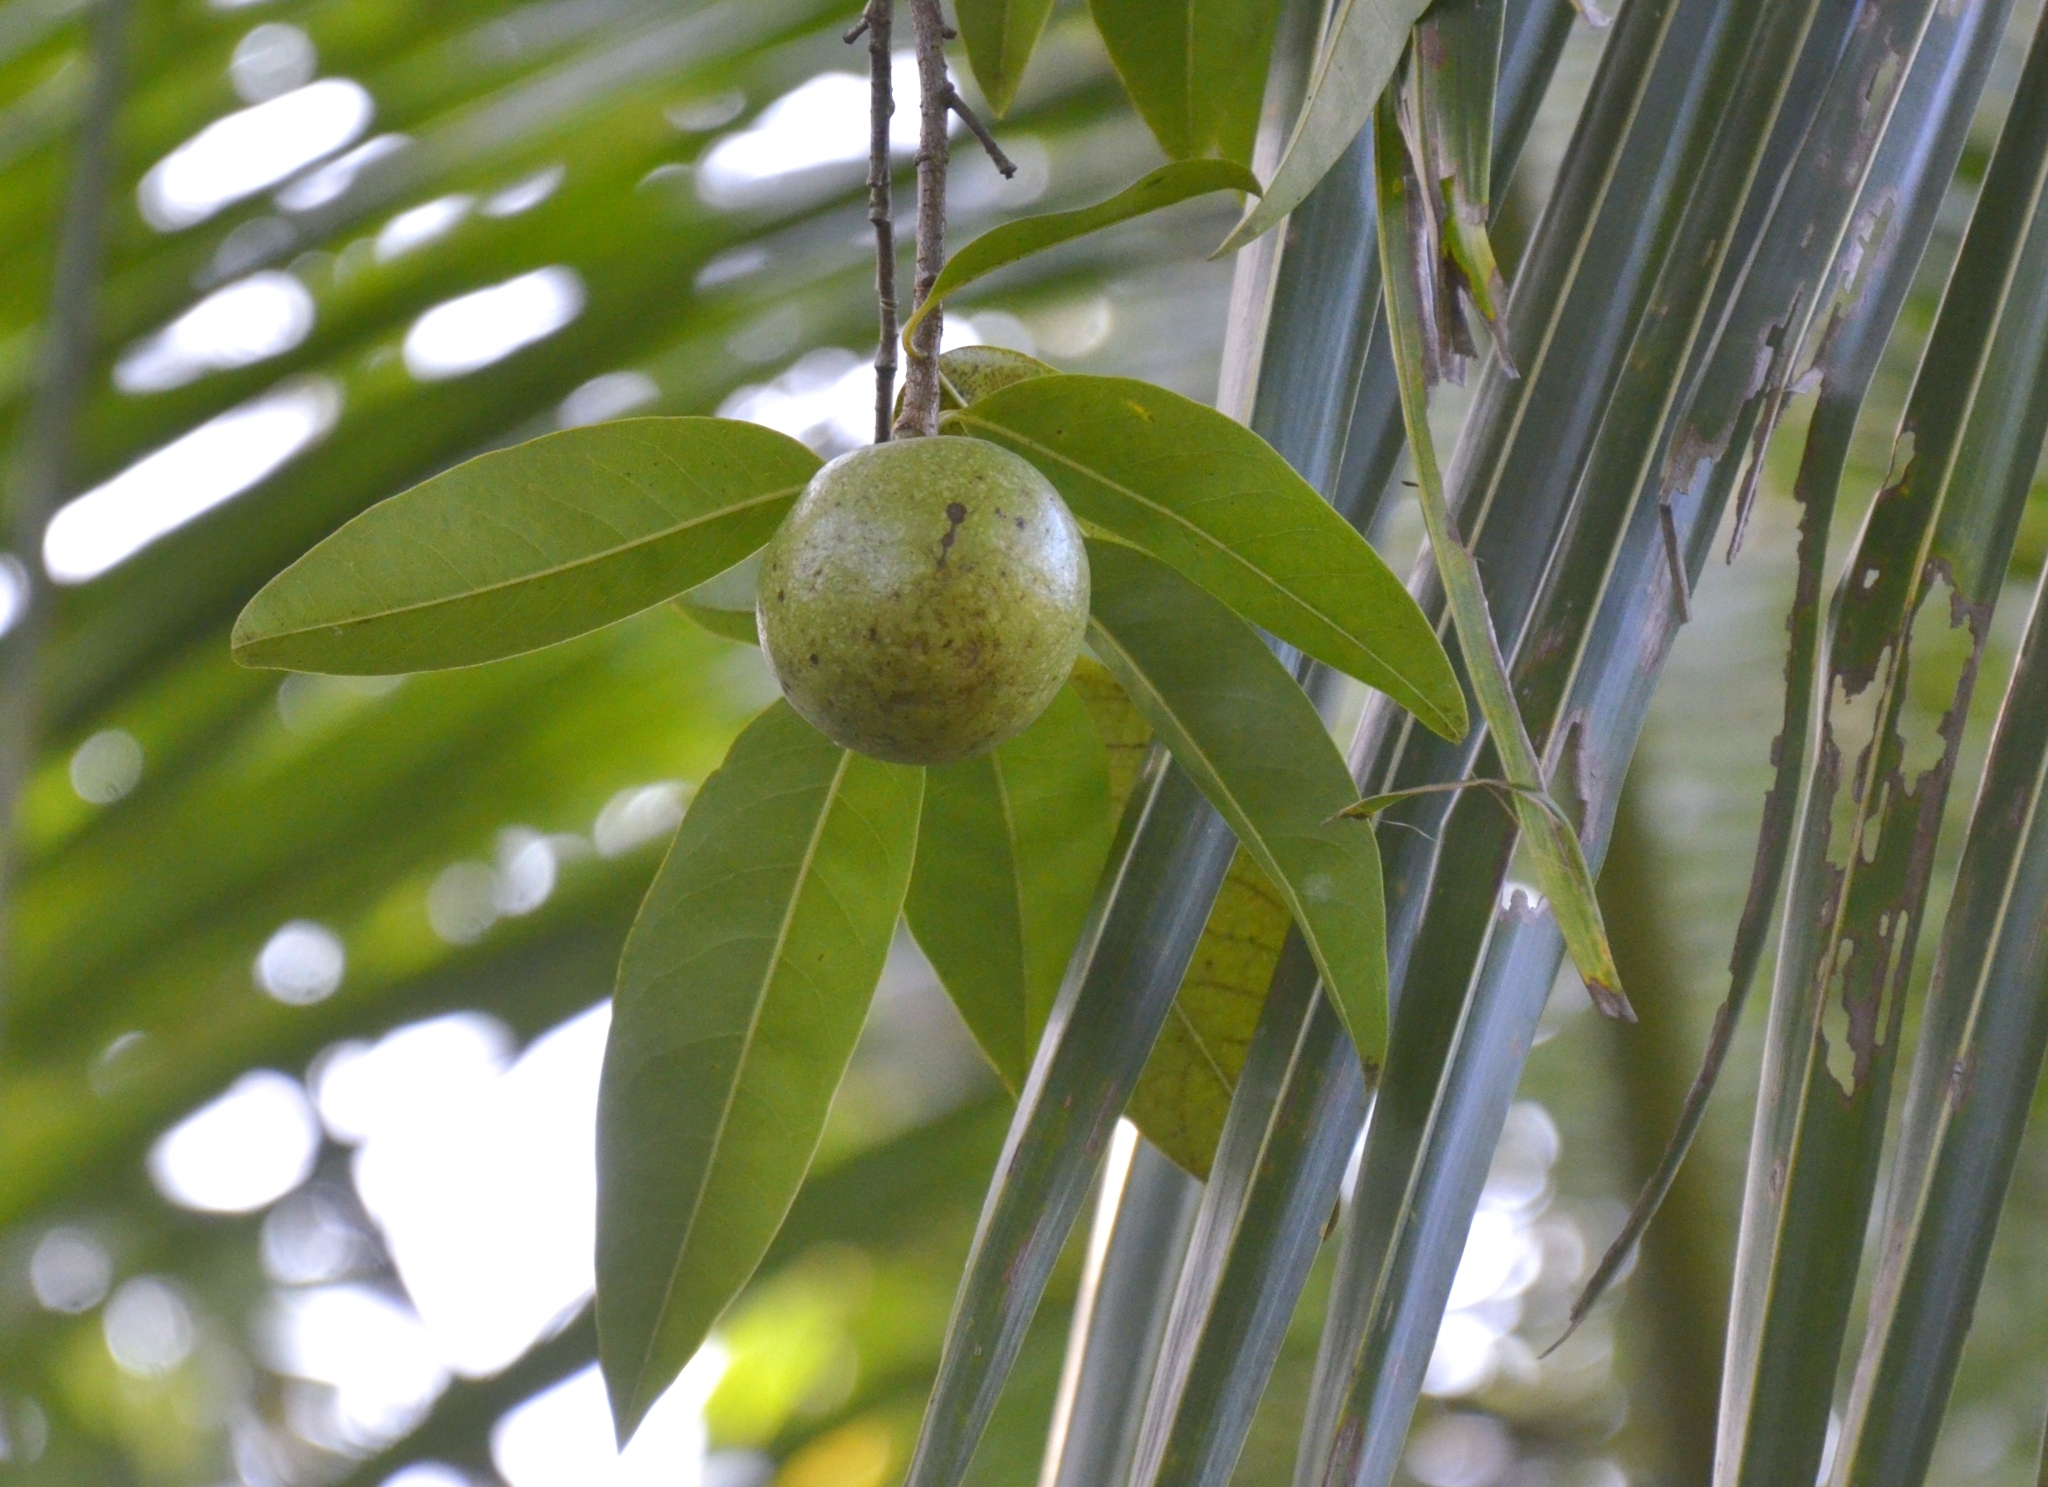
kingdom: Plantae
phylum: Tracheophyta
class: Magnoliopsida
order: Magnoliales
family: Annonaceae
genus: Annona
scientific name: Annona glabra
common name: Monkey apple
